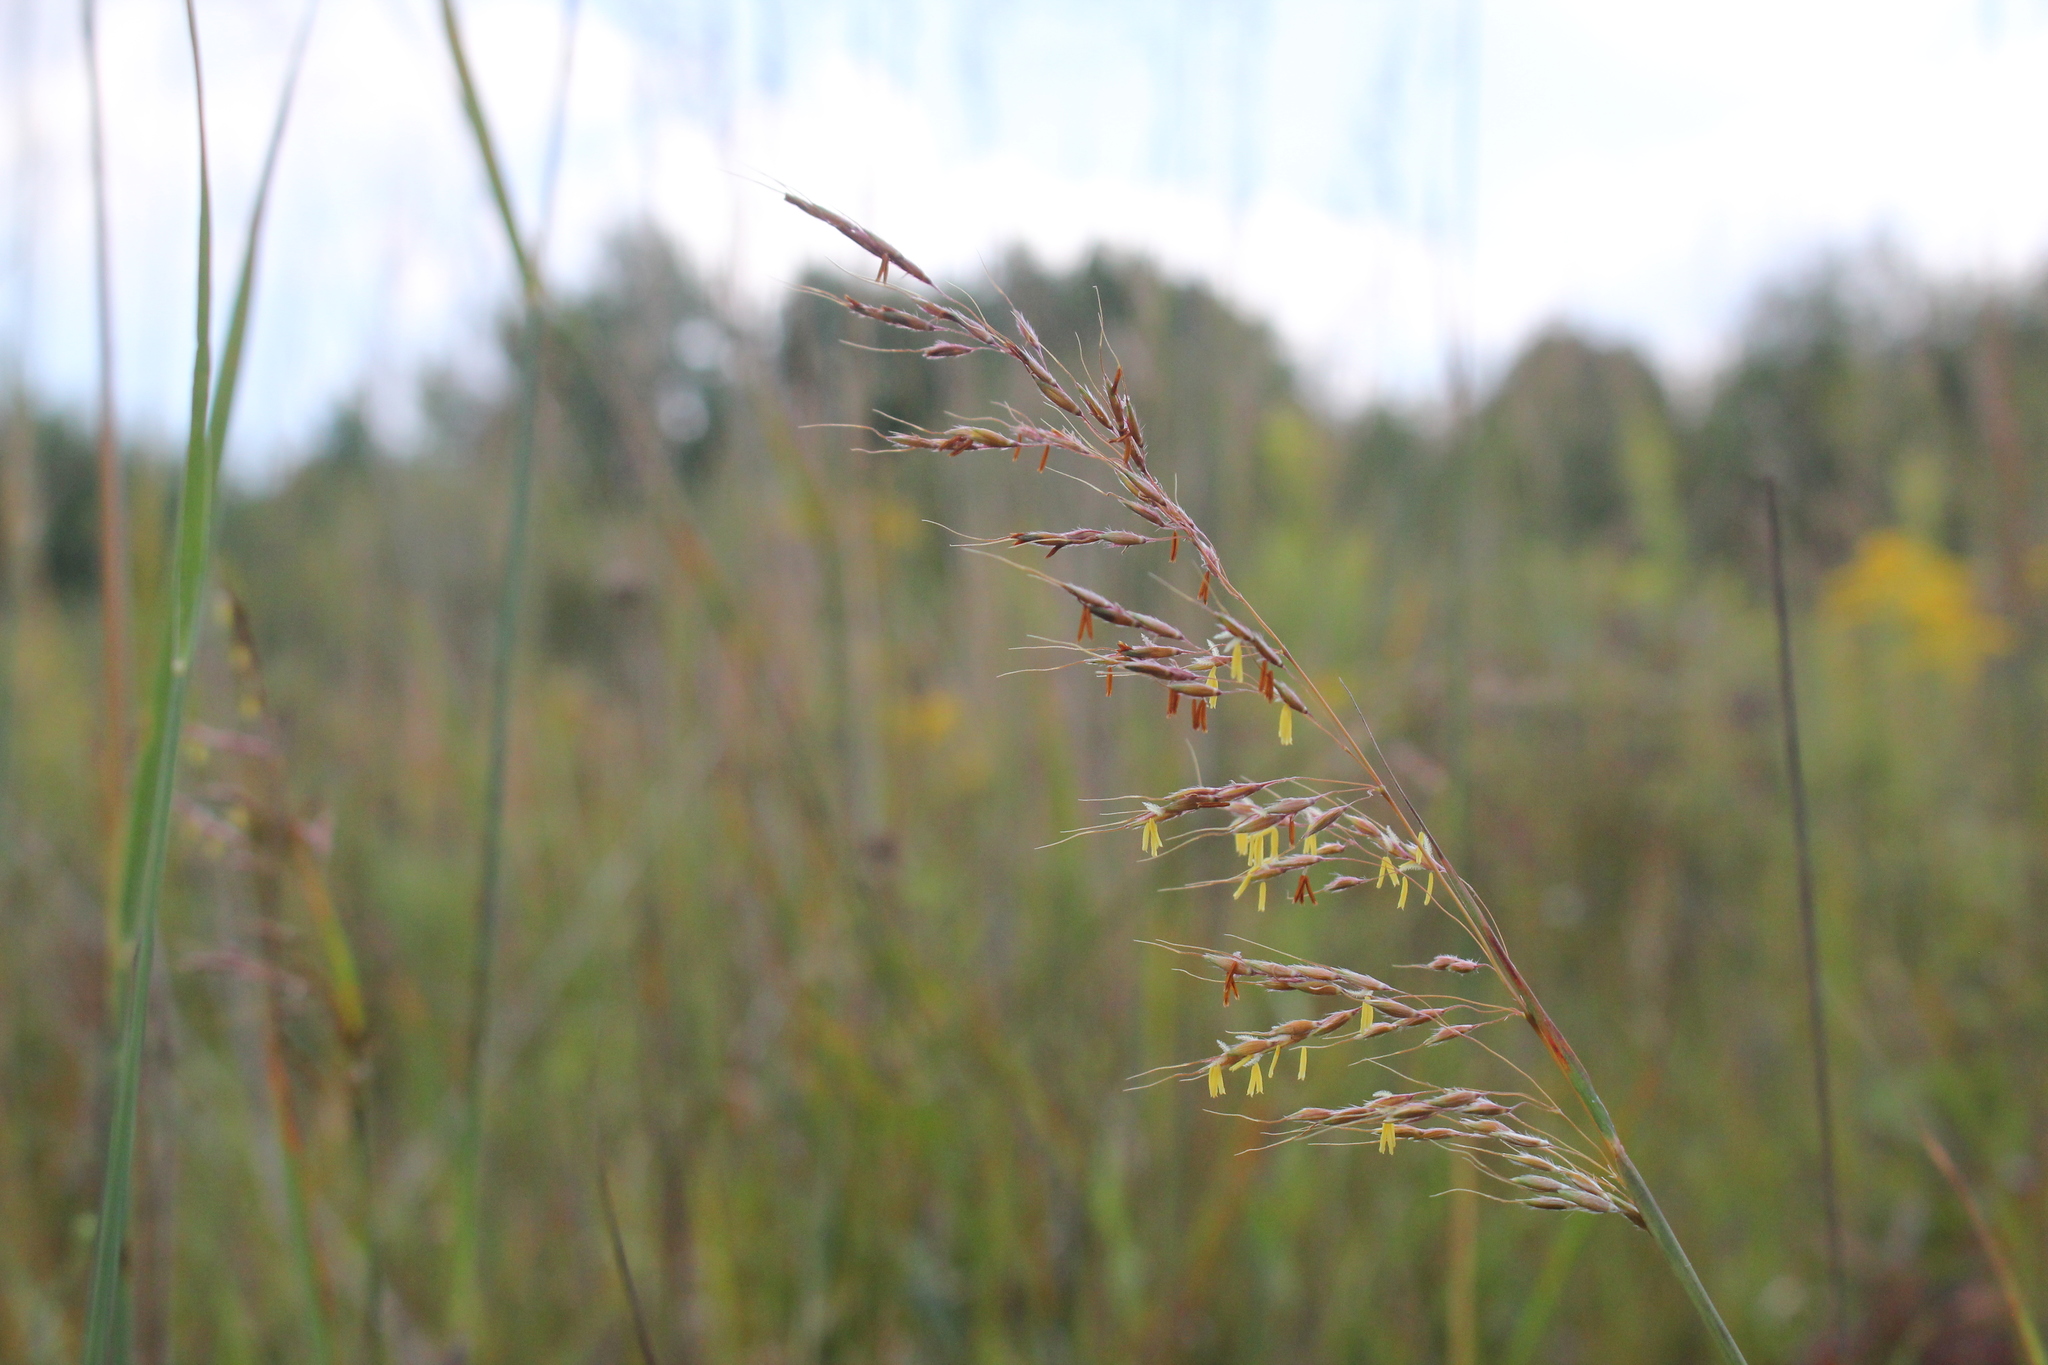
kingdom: Plantae
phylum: Tracheophyta
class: Liliopsida
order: Poales
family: Poaceae
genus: Sorghastrum
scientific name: Sorghastrum nutans
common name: Indian grass
